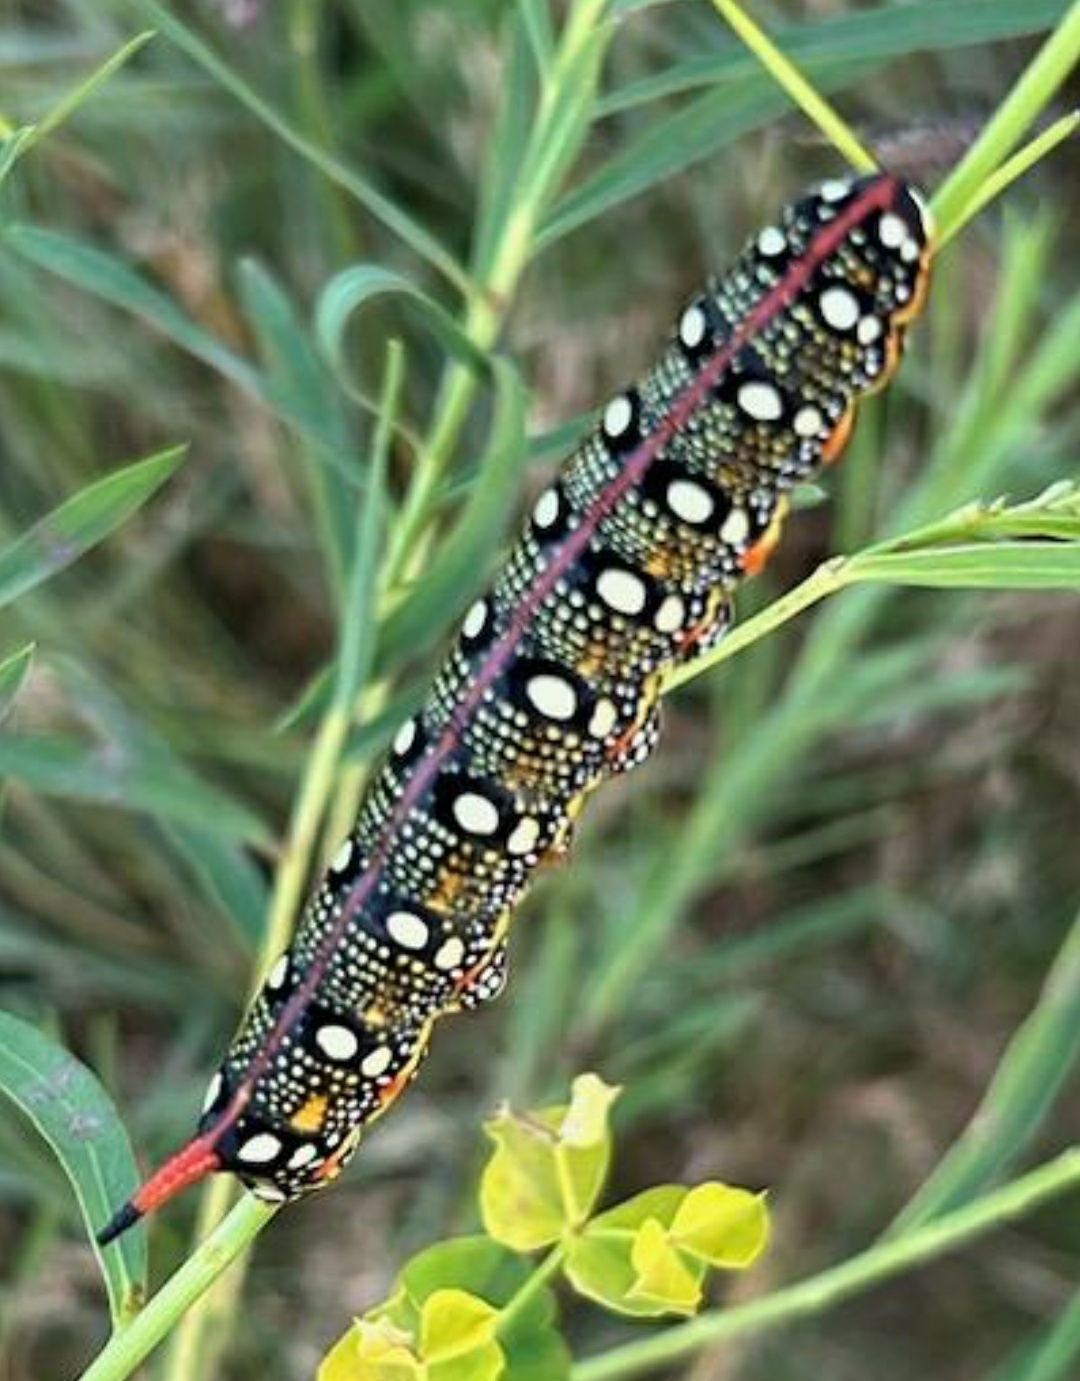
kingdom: Animalia
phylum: Arthropoda
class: Insecta
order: Lepidoptera
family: Sphingidae
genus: Hyles
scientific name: Hyles euphorbiae
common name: Spurge hawk-moth
